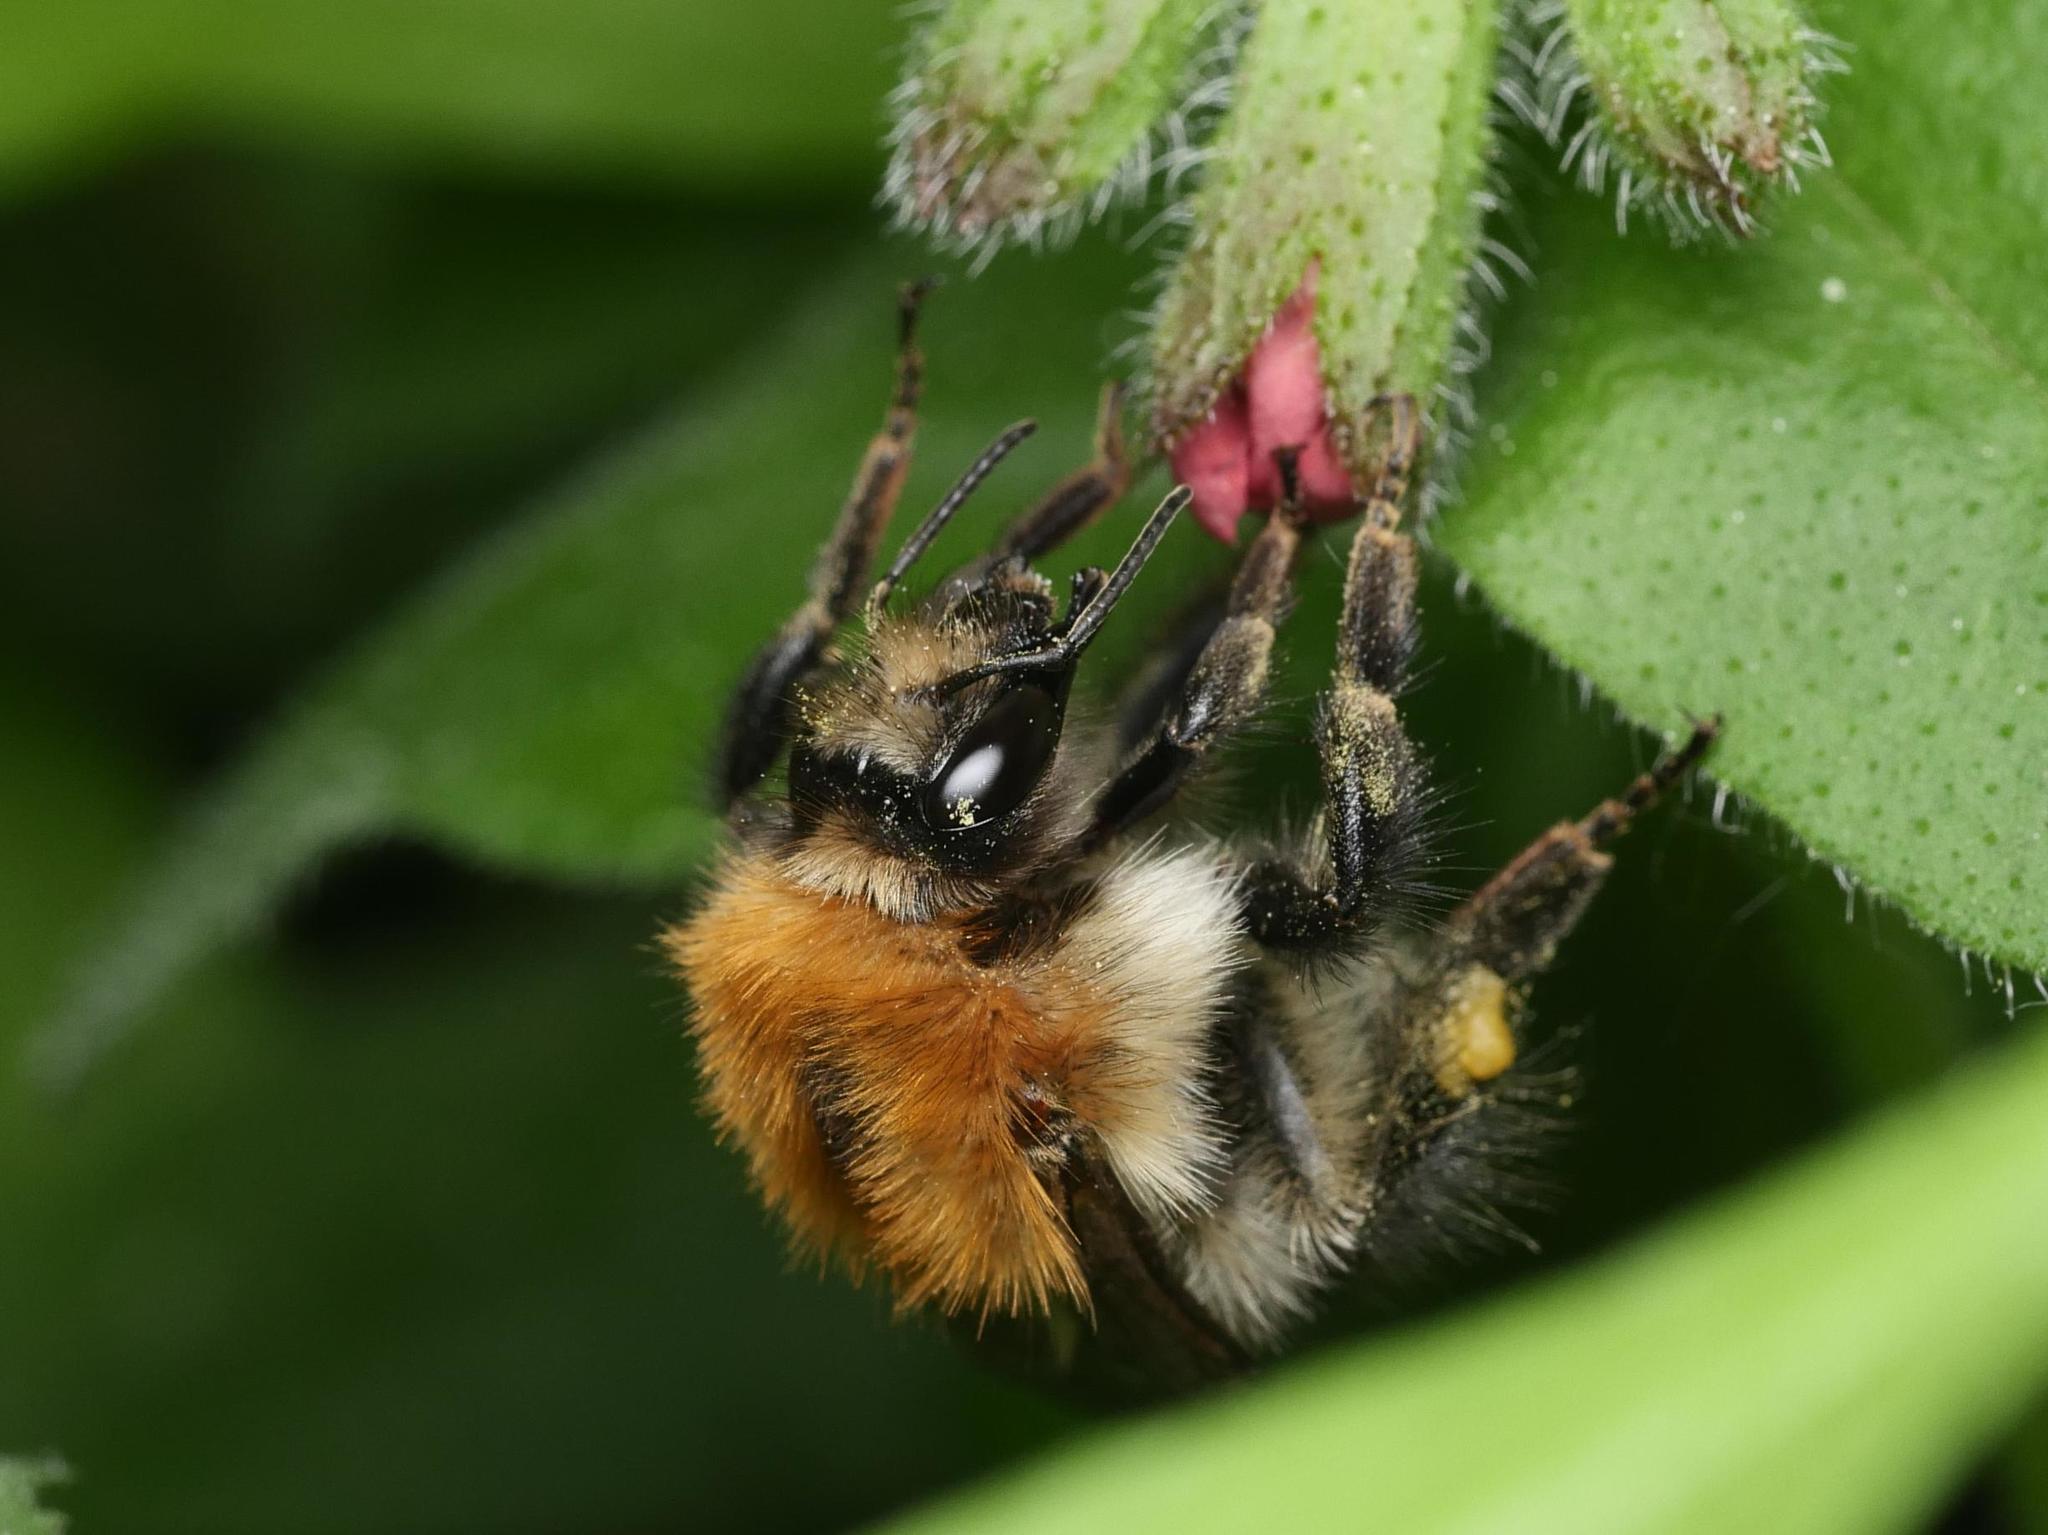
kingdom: Animalia
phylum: Arthropoda
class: Insecta
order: Hymenoptera
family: Apidae
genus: Bombus
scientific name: Bombus pascuorum
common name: Common carder bee
